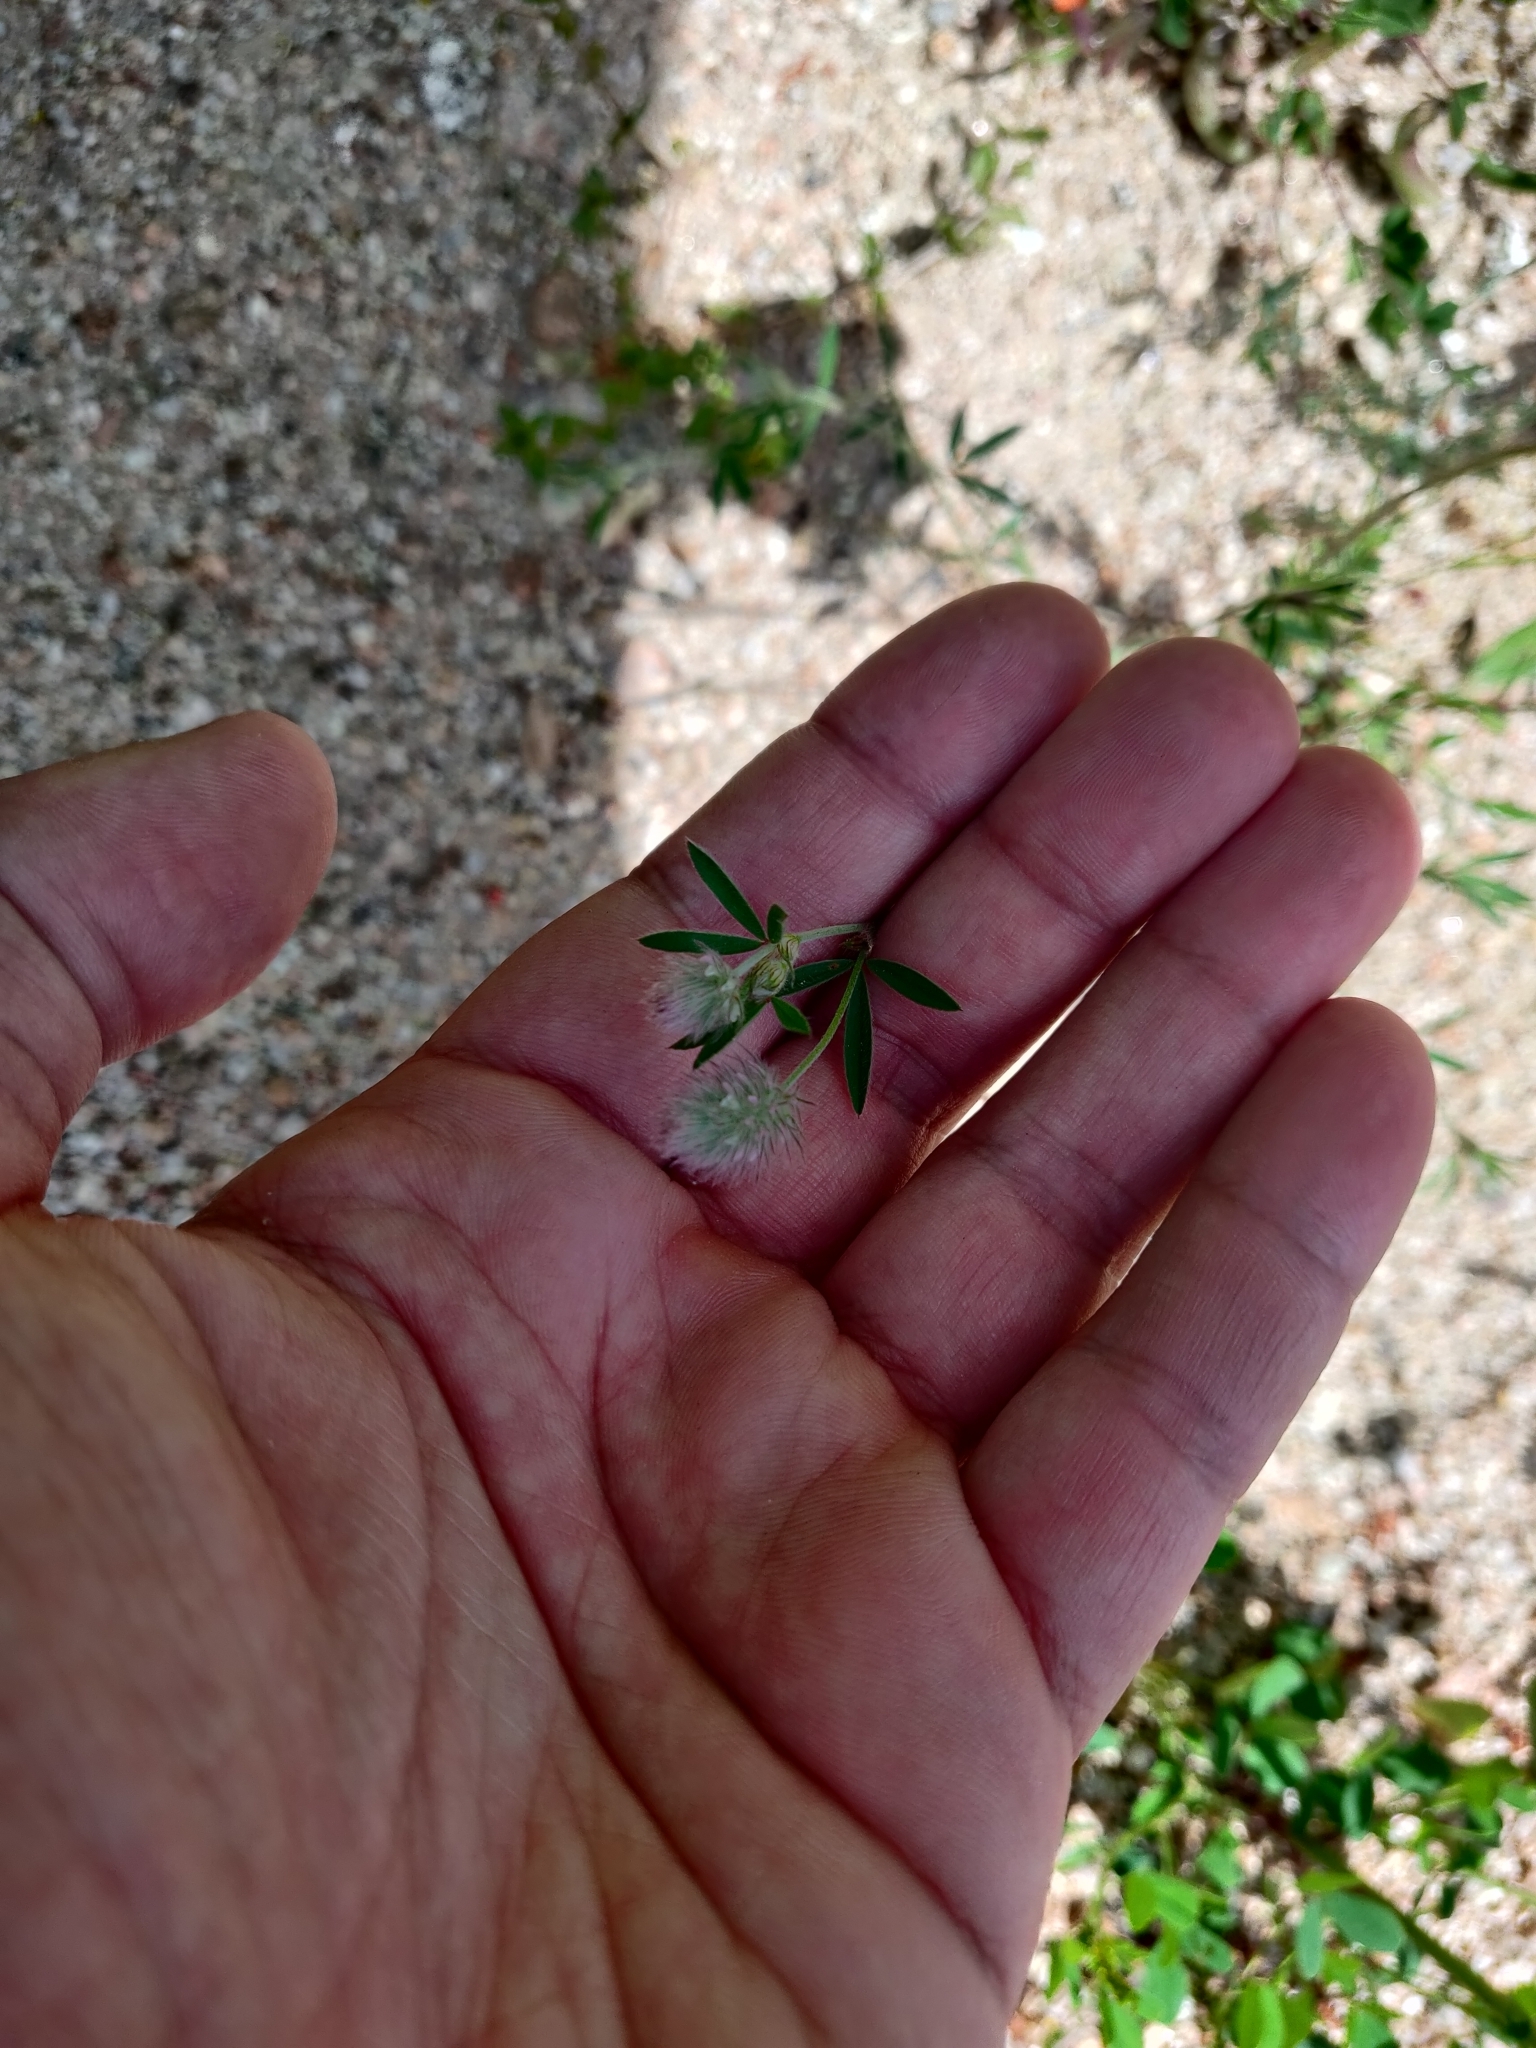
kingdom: Plantae
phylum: Tracheophyta
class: Magnoliopsida
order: Fabales
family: Fabaceae
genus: Trifolium
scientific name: Trifolium arvense
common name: Hare's-foot clover
